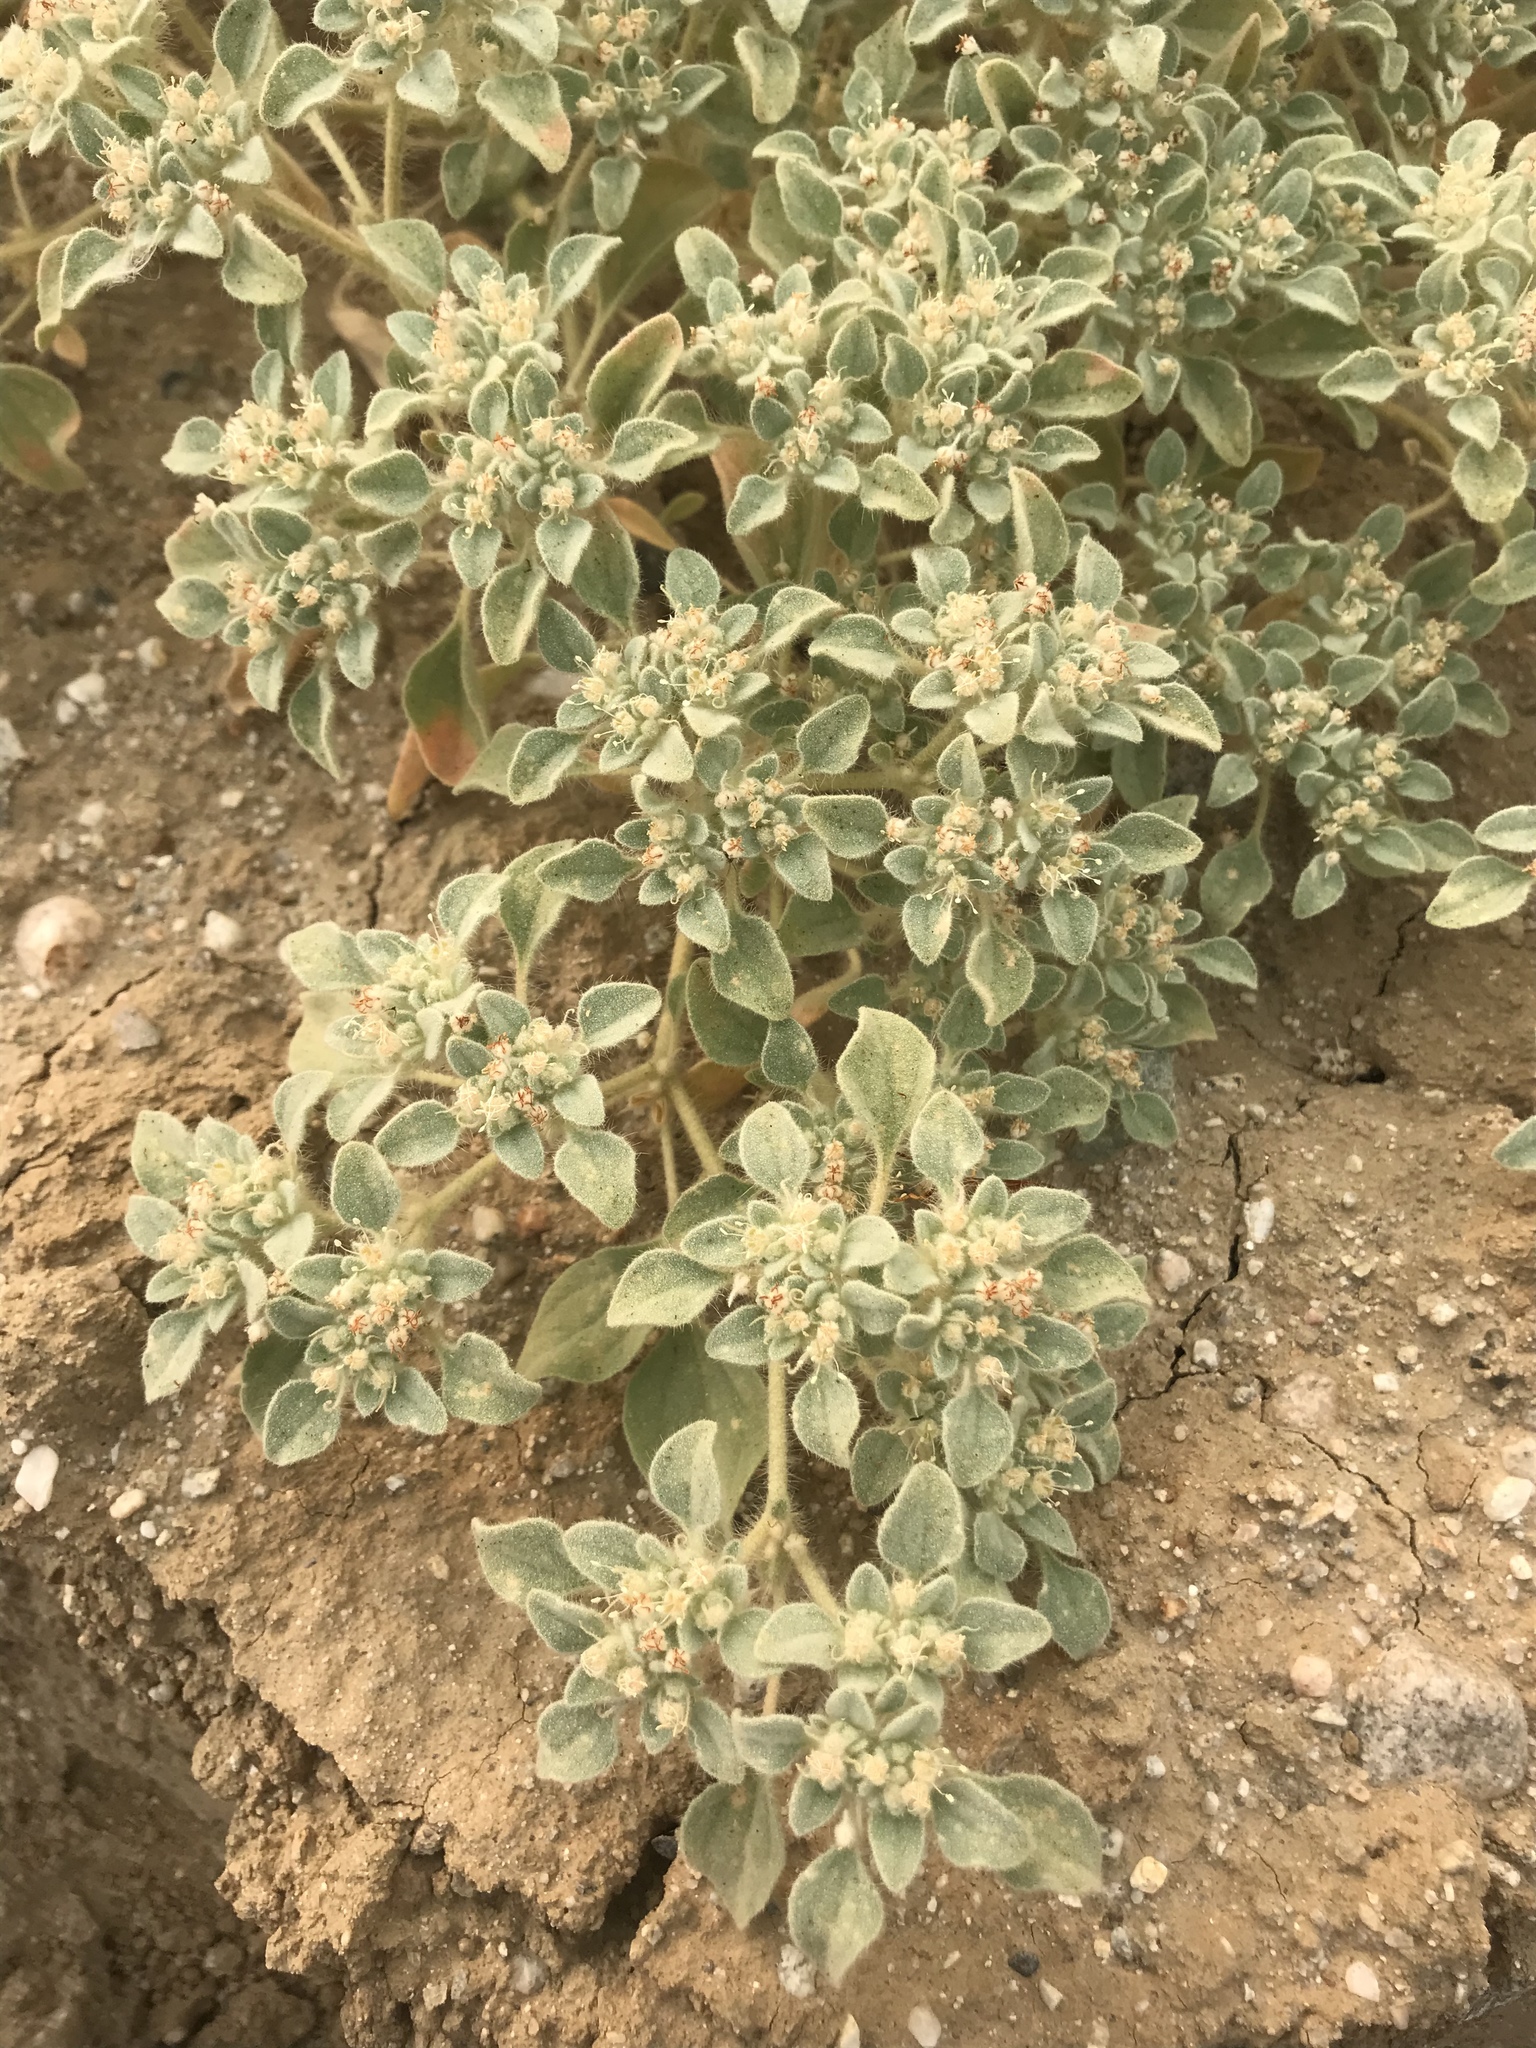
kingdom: Plantae
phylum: Tracheophyta
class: Magnoliopsida
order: Malpighiales
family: Euphorbiaceae
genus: Croton
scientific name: Croton setiger
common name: Dove weed
